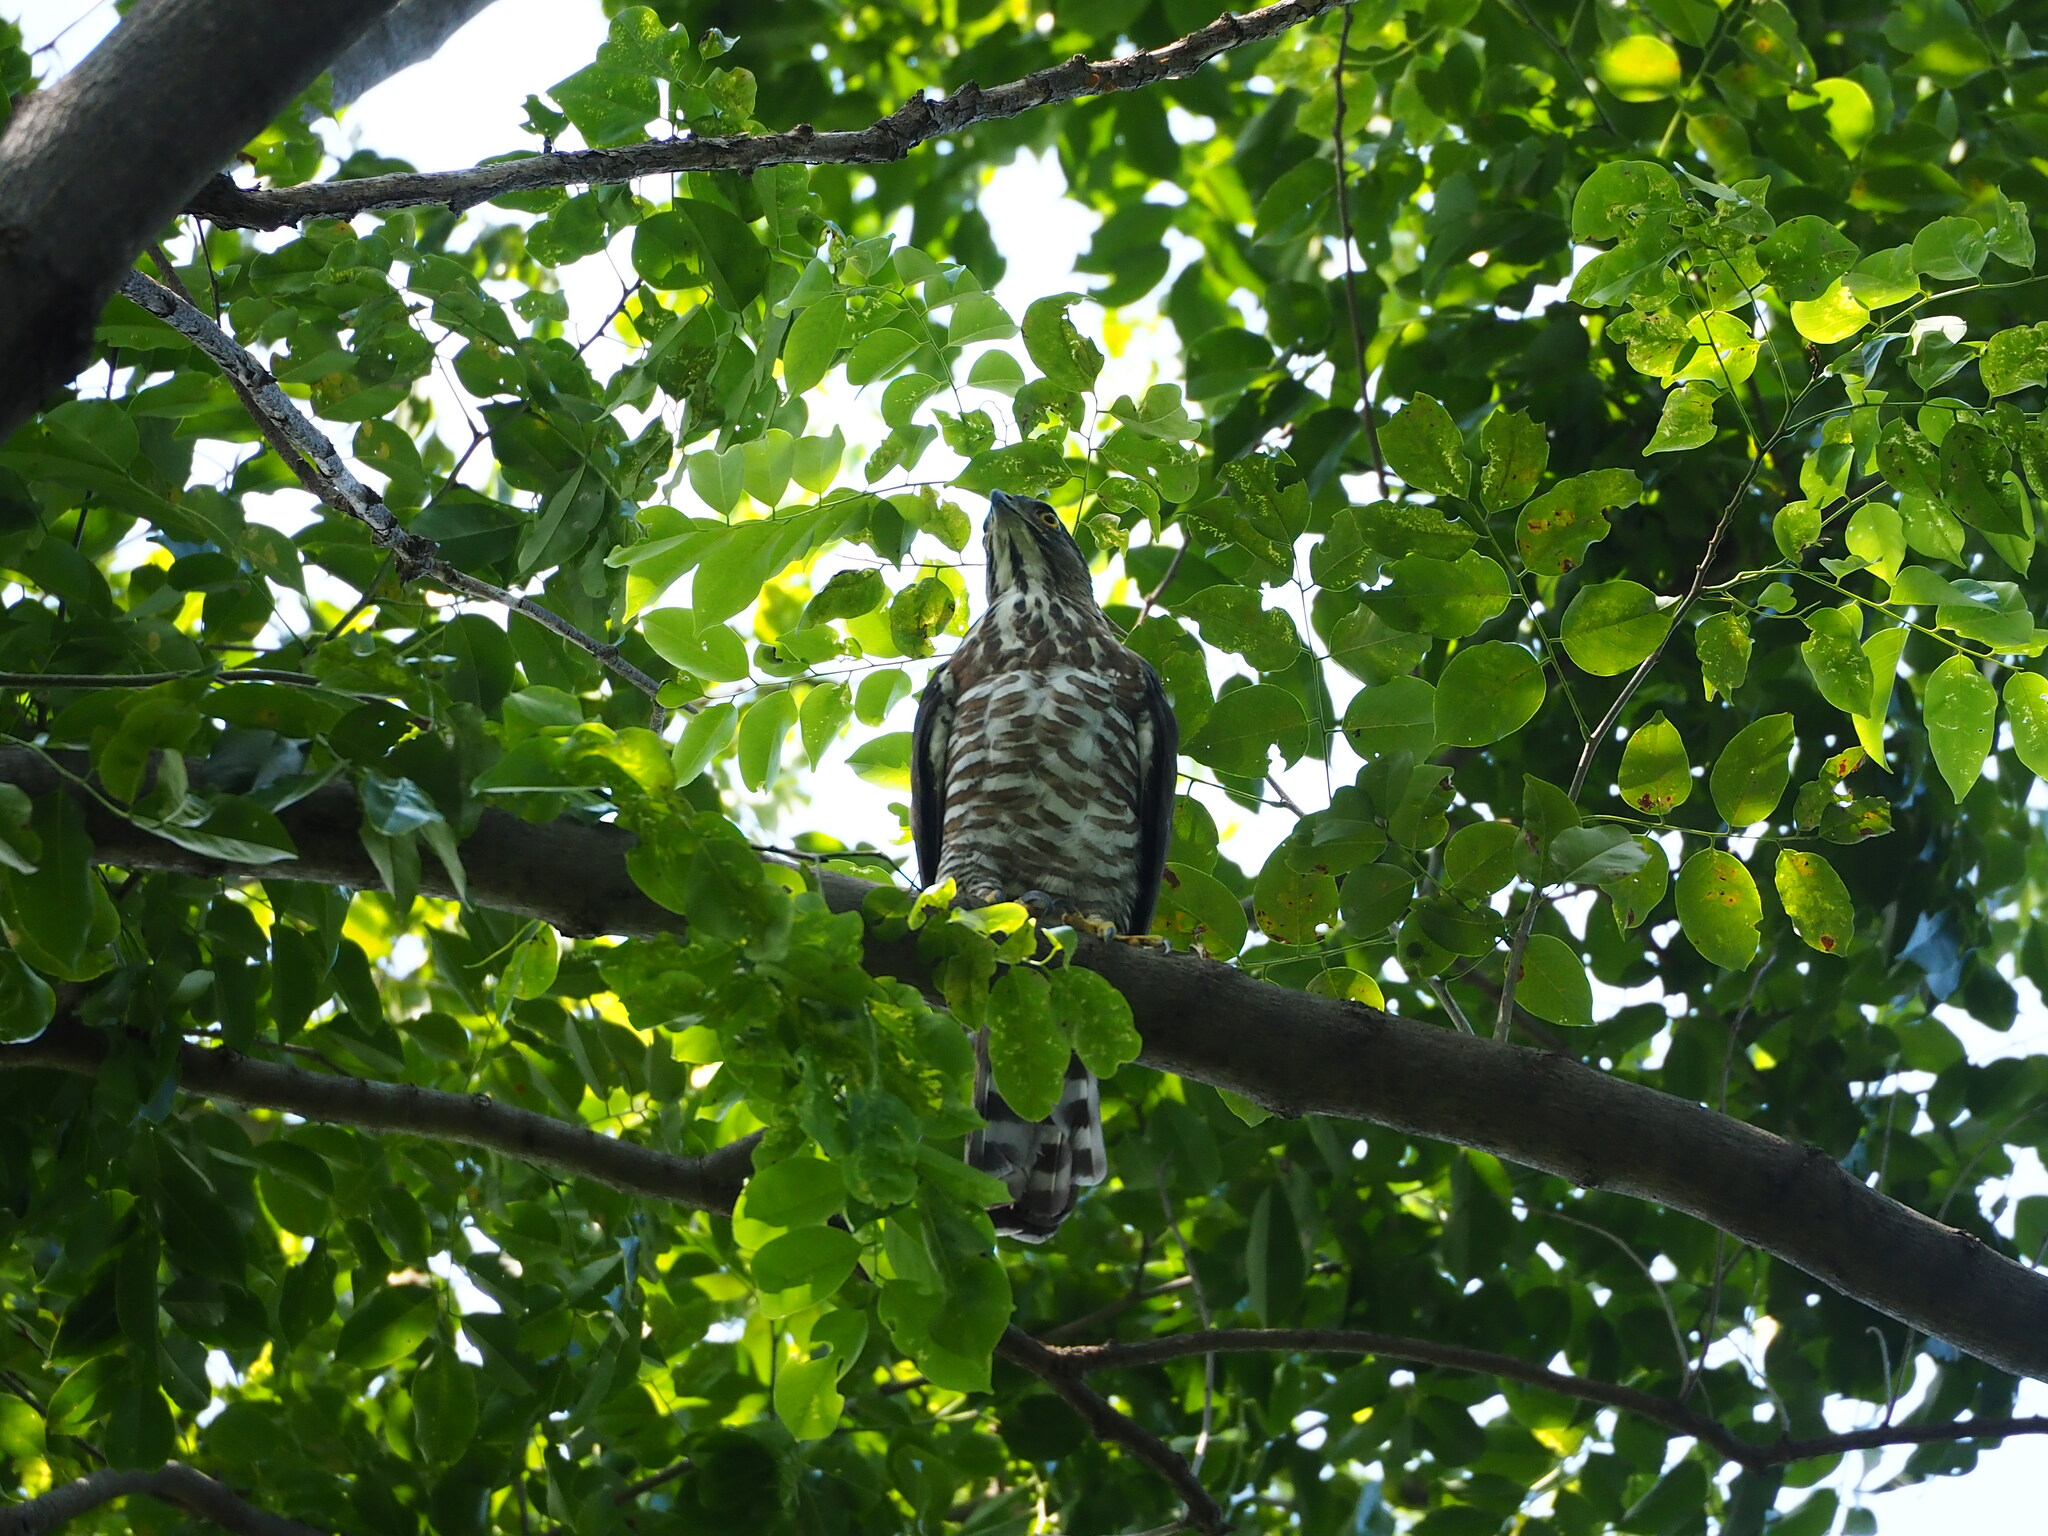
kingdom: Animalia
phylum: Chordata
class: Aves
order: Accipitriformes
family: Accipitridae
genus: Accipiter
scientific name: Accipiter trivirgatus
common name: Crested goshawk
